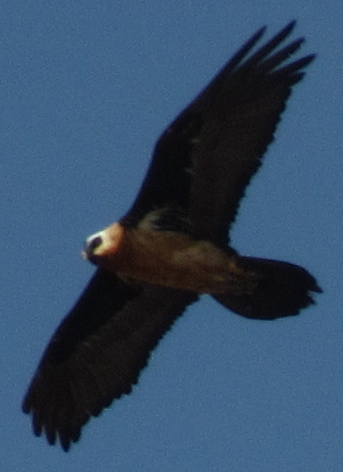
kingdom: Animalia
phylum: Chordata
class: Aves
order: Accipitriformes
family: Accipitridae
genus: Gypaetus
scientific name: Gypaetus barbatus
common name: Bearded vulture
